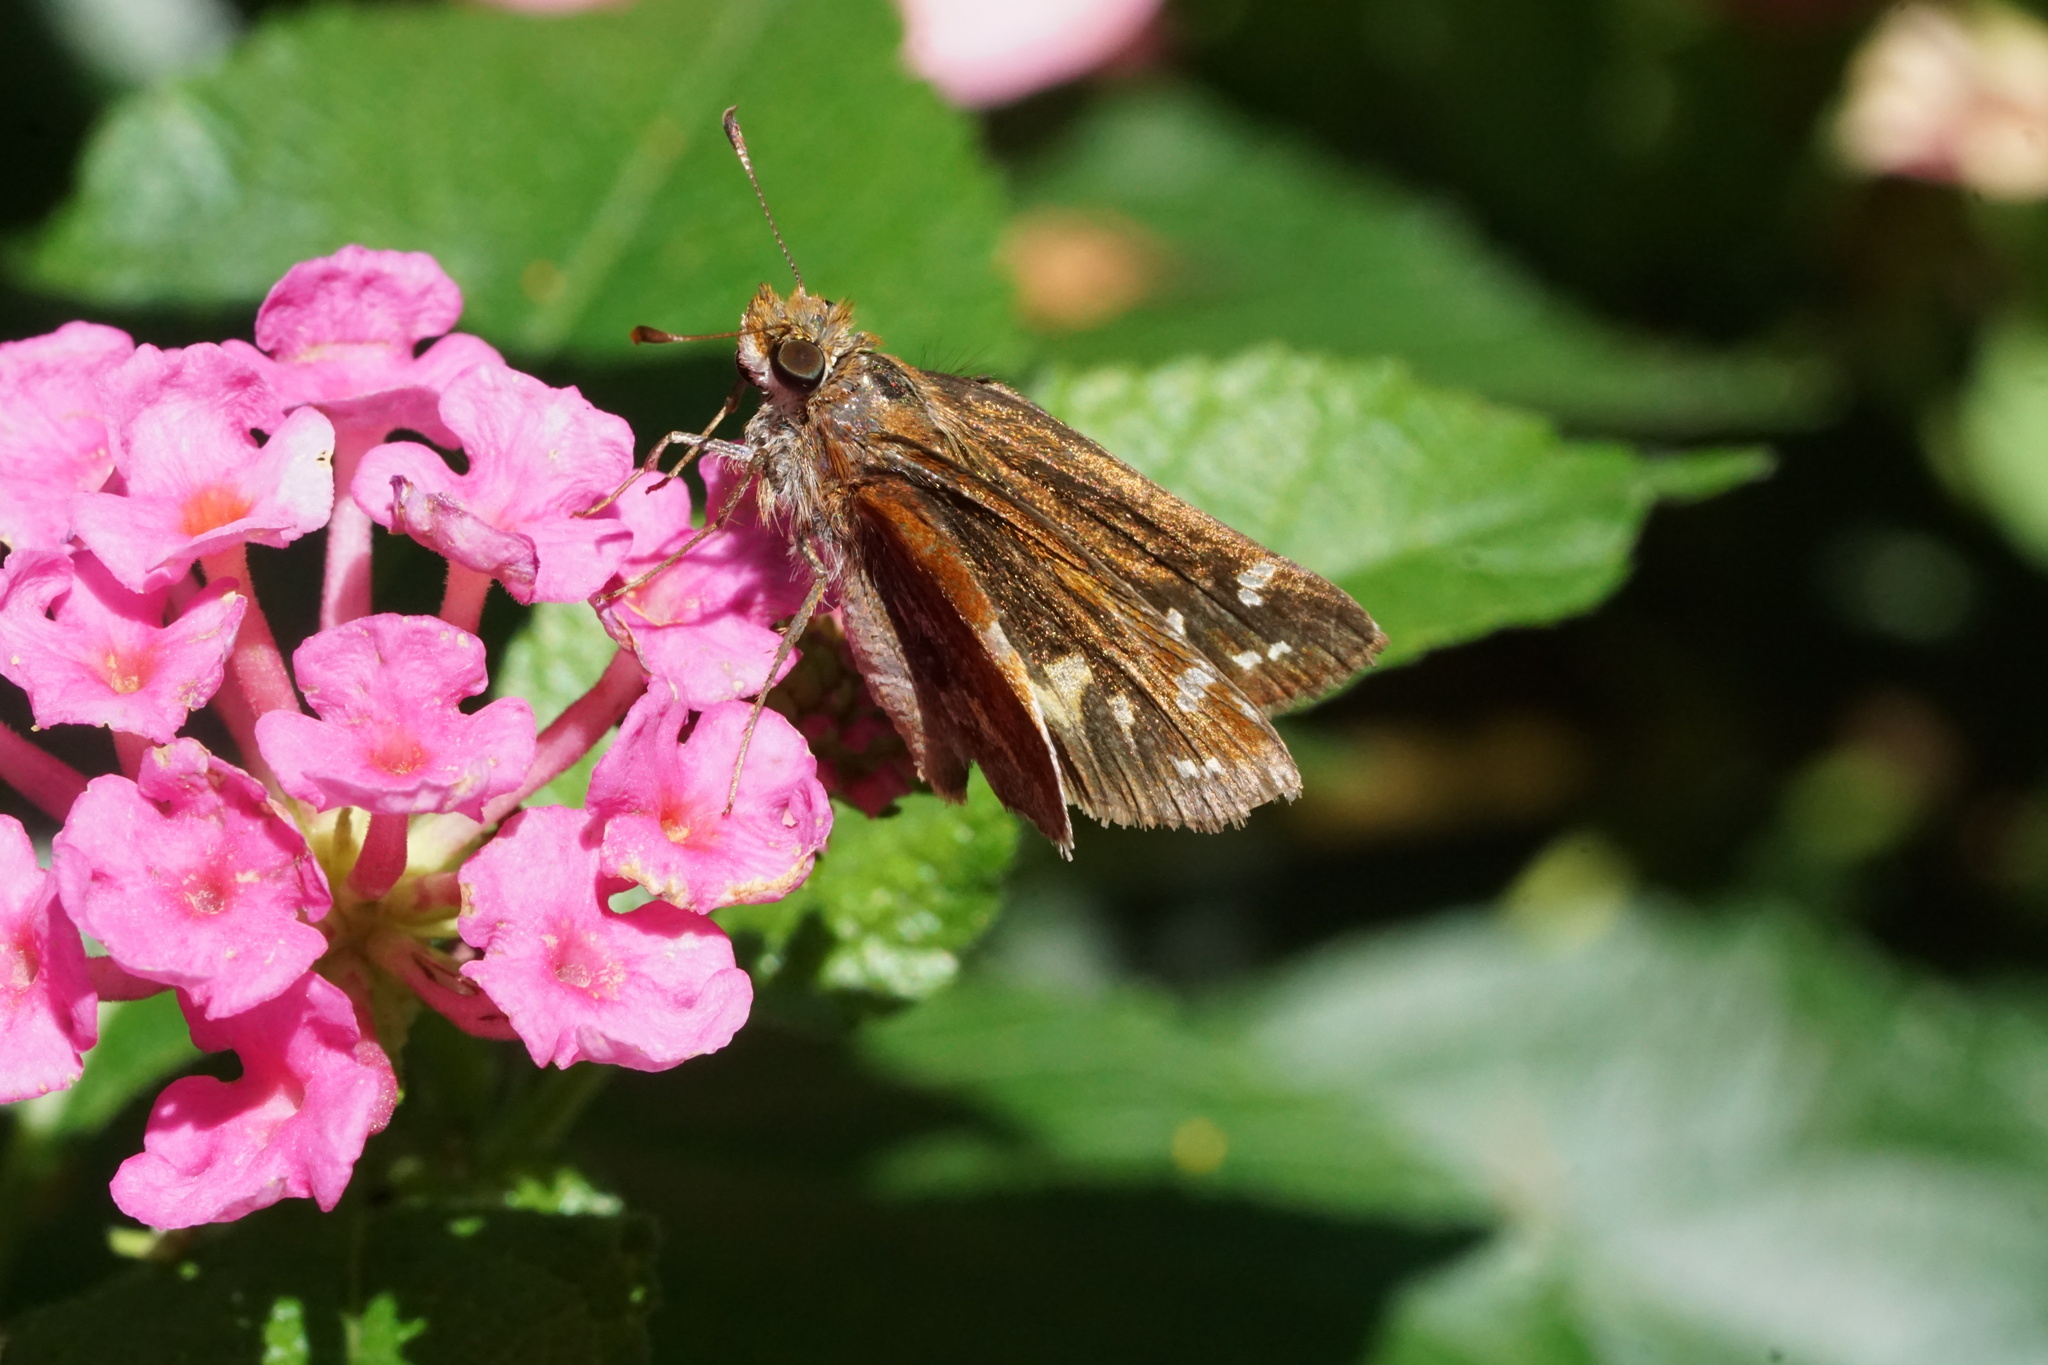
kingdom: Animalia
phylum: Arthropoda
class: Insecta
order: Lepidoptera
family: Hesperiidae
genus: Lon
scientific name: Lon zabulon
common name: Zabulon skipper
